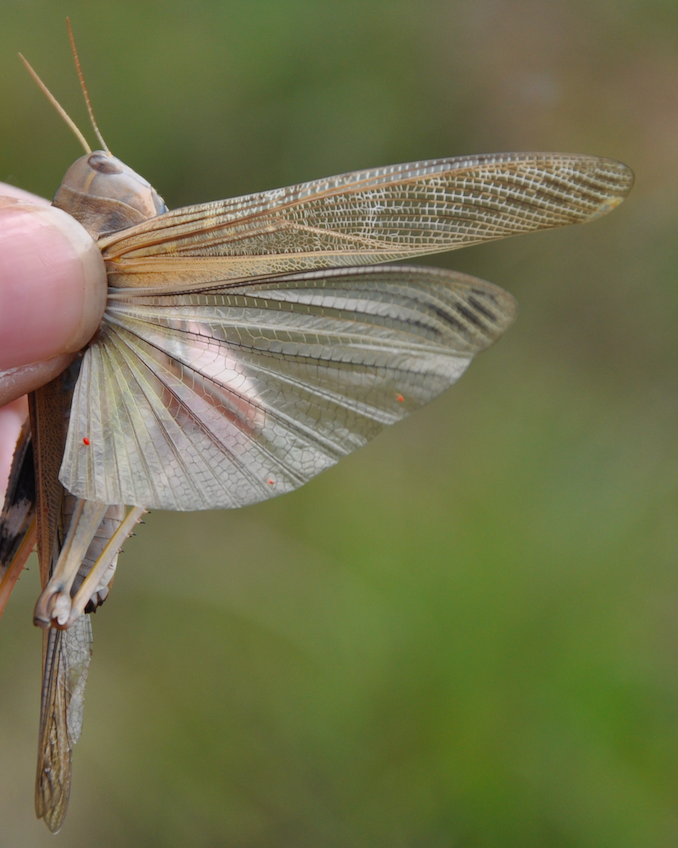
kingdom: Animalia
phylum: Arthropoda
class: Insecta
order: Orthoptera
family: Acrididae
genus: Locusta
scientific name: Locusta migratoria
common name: Migratory locust
